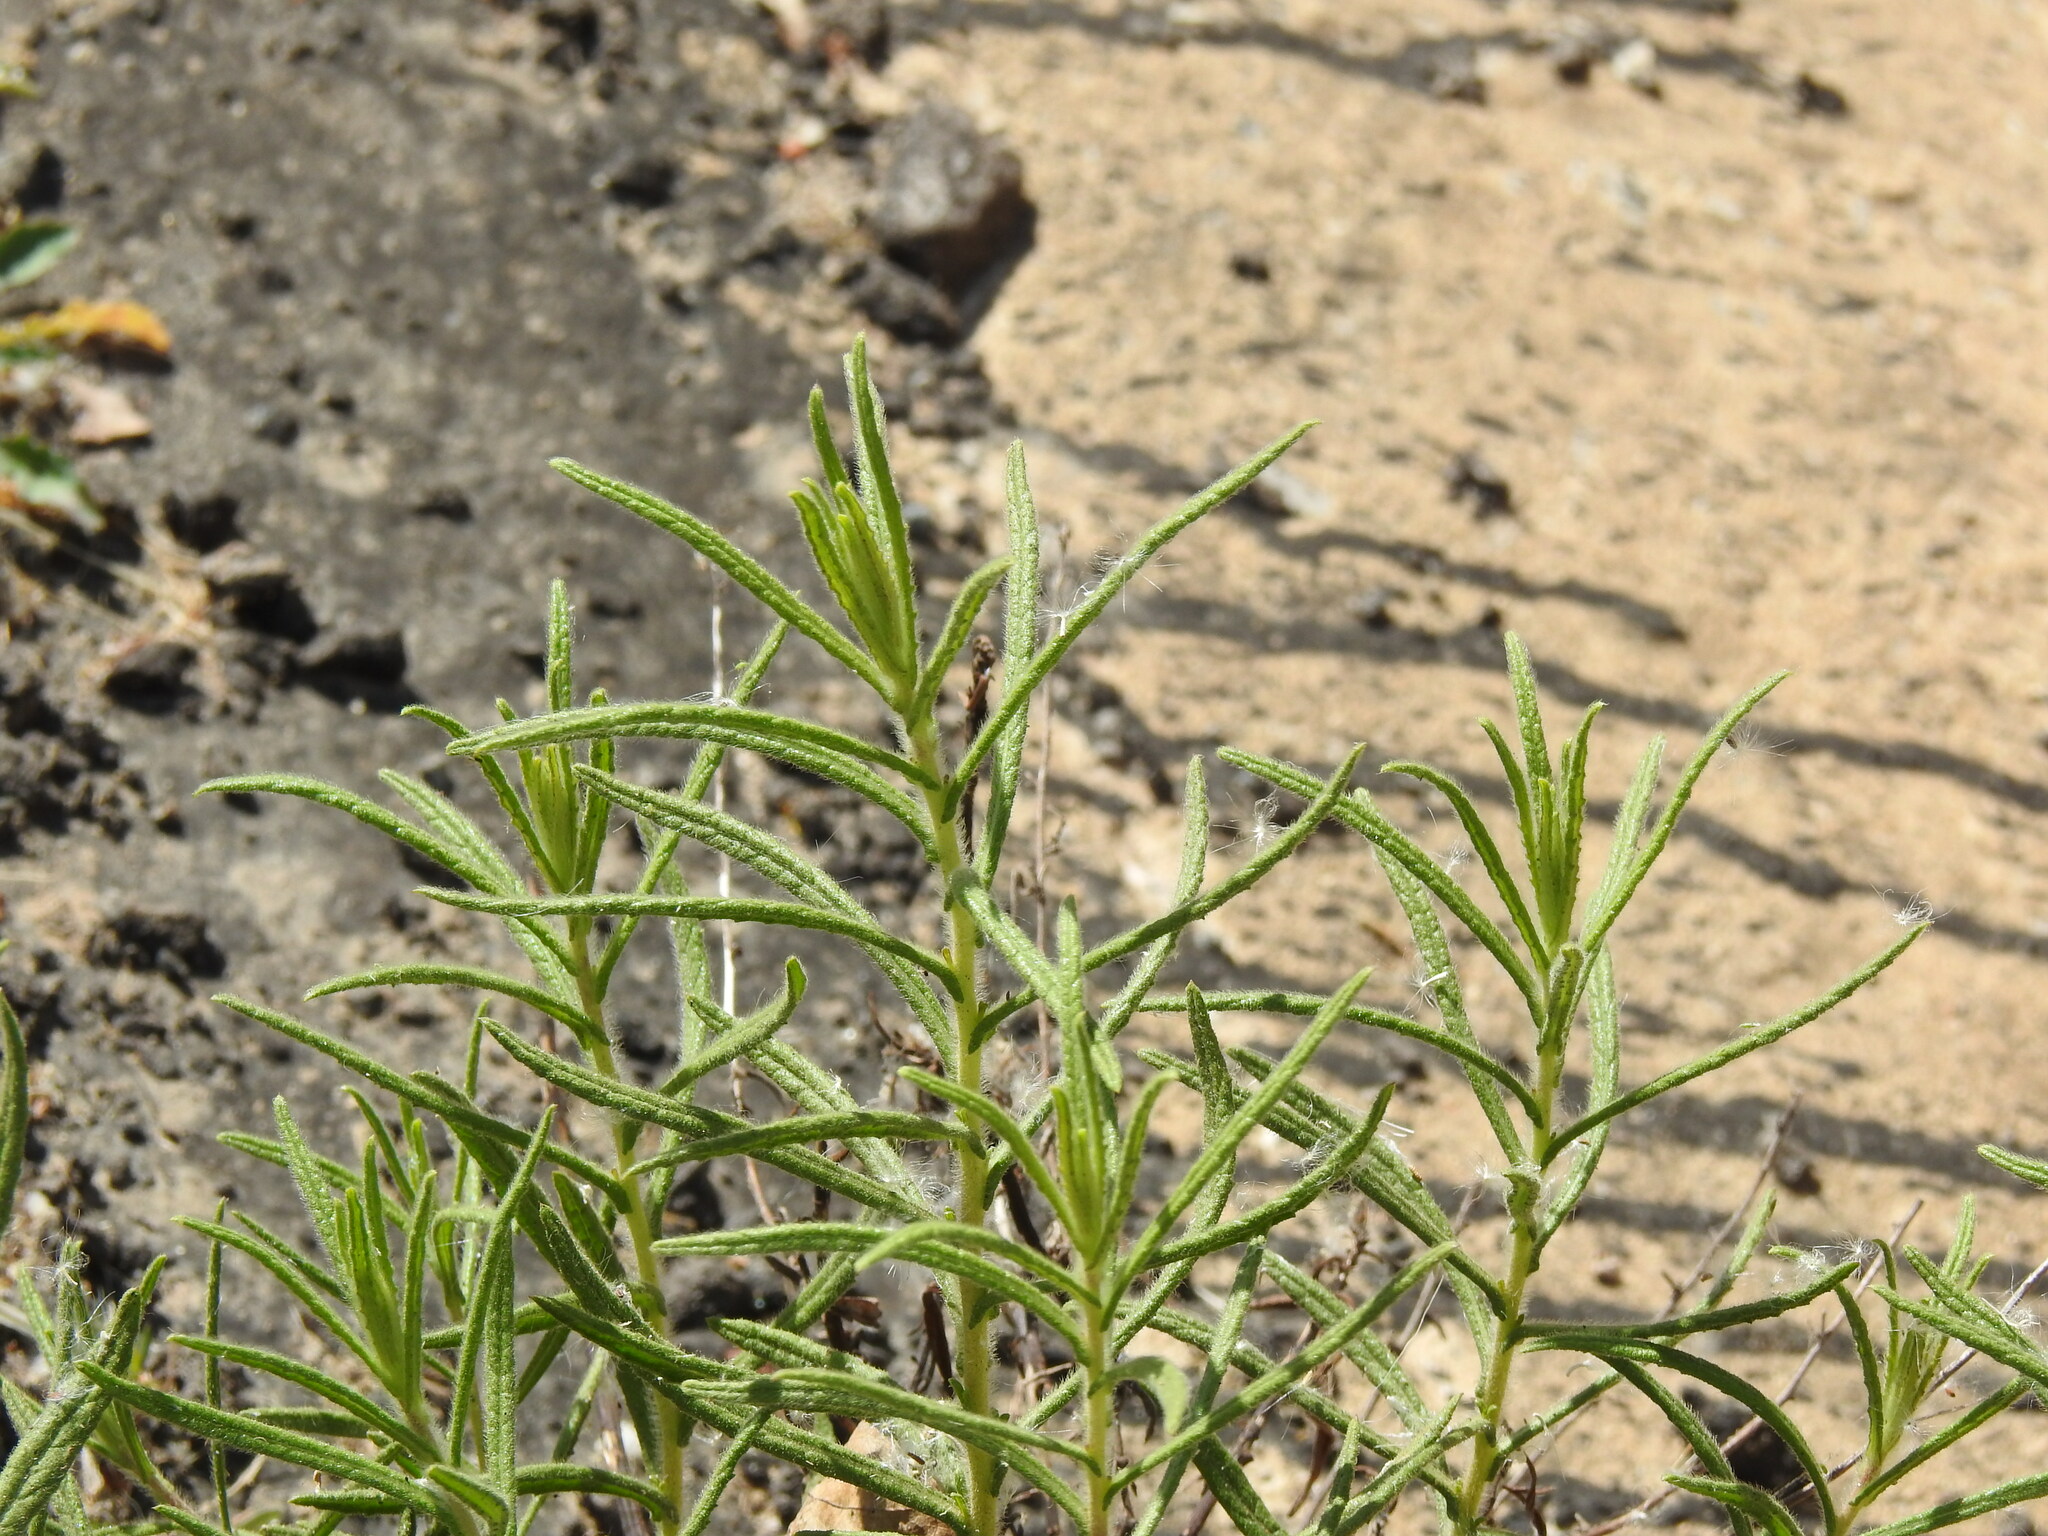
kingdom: Plantae
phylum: Tracheophyta
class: Magnoliopsida
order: Asterales
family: Asteraceae
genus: Dittrichia
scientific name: Dittrichia viscosa
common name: Woody fleabane
